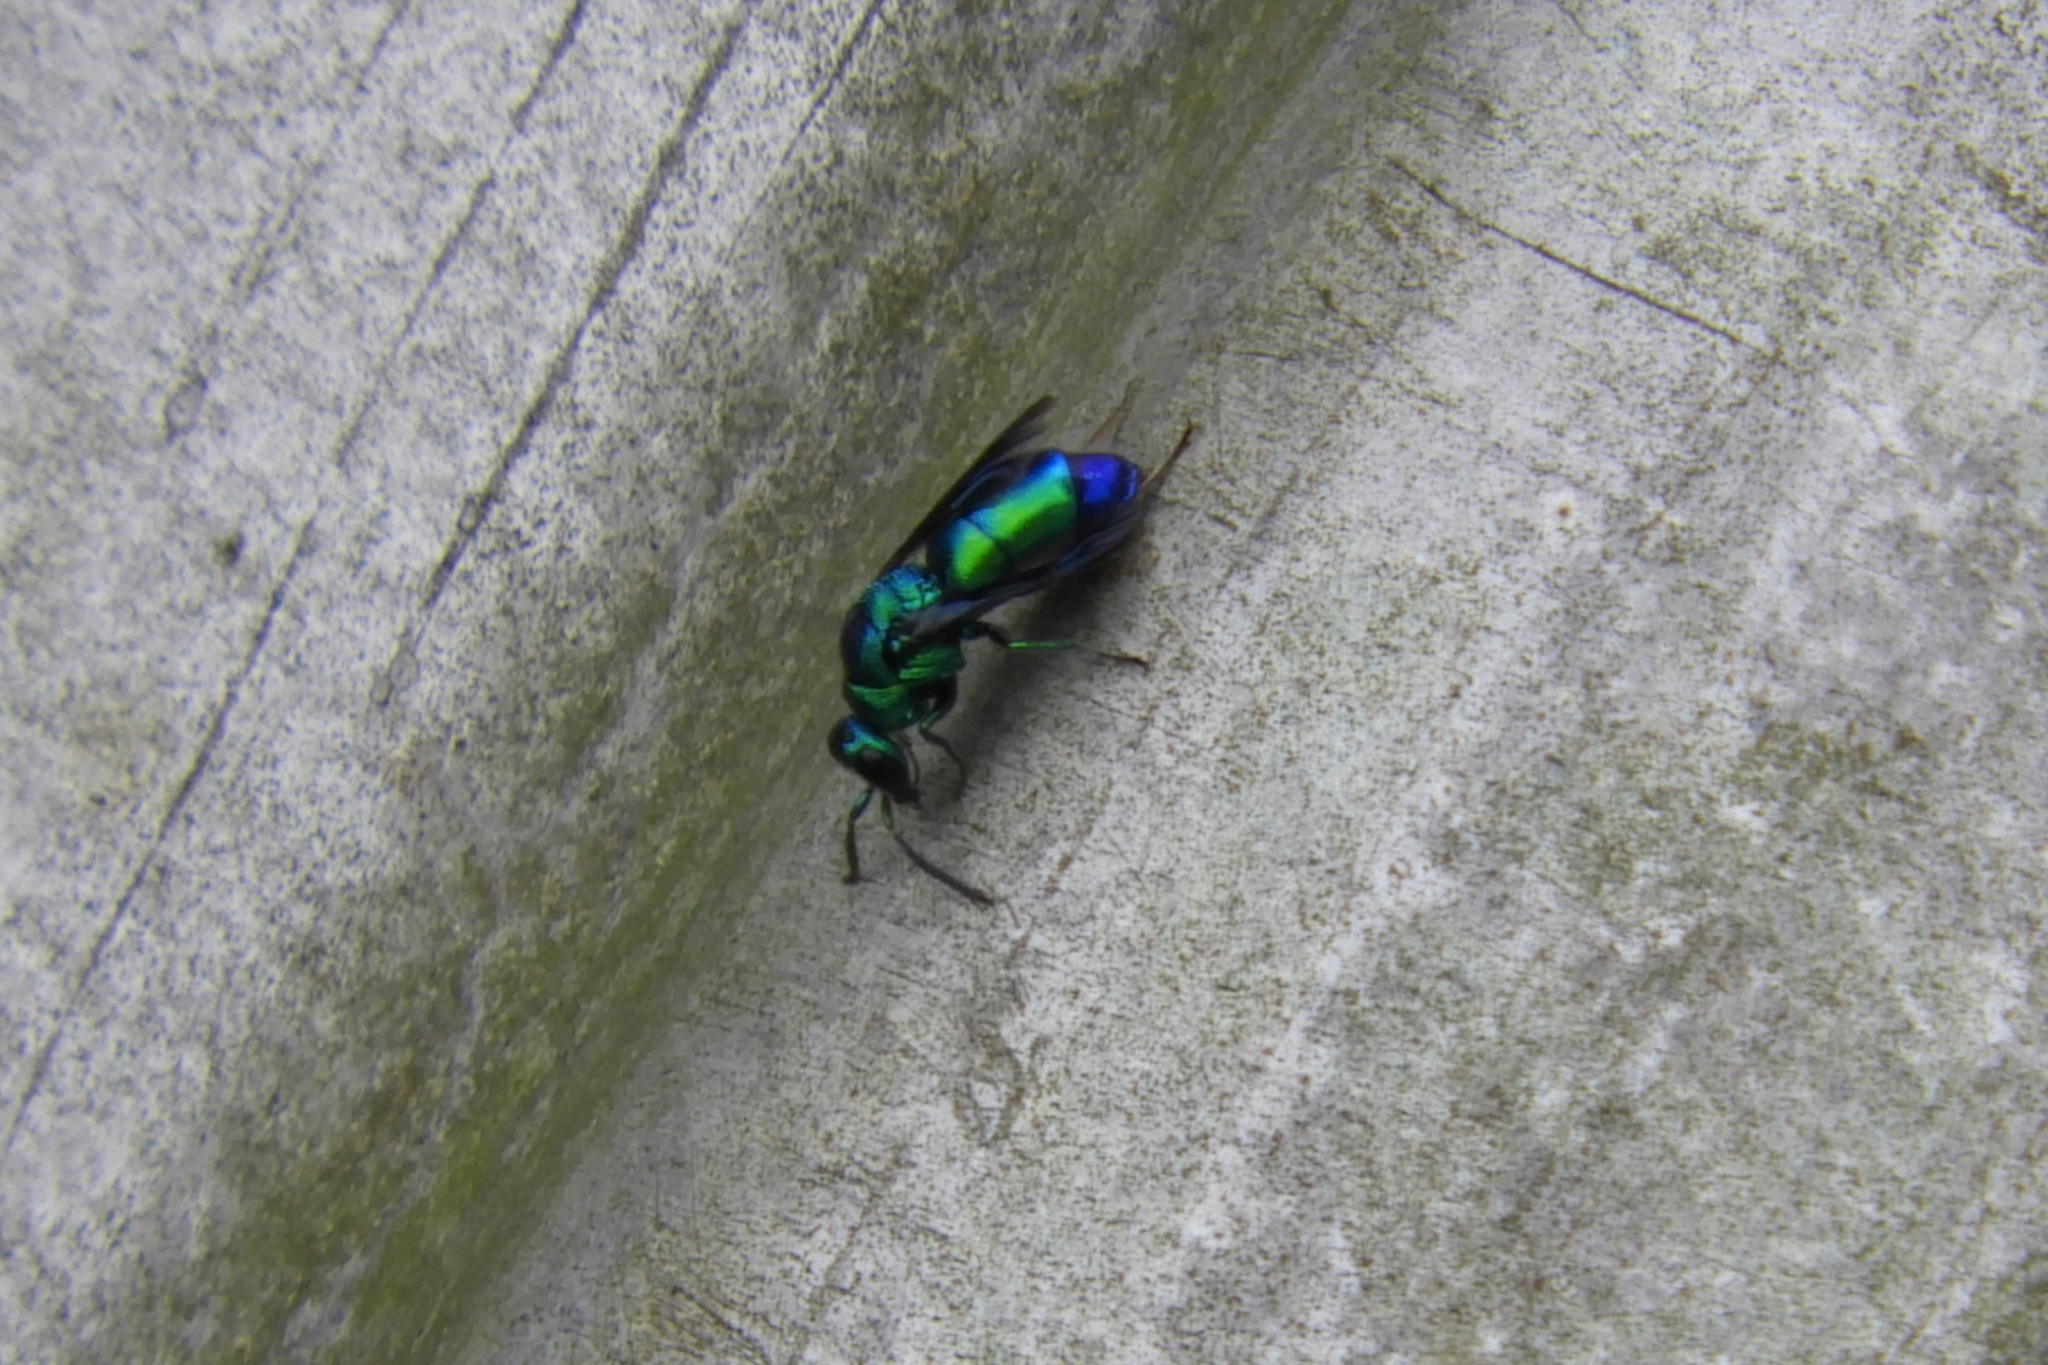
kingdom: Animalia
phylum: Arthropoda
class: Insecta
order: Hymenoptera
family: Chrysididae
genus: Chrysis
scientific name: Chrysis angolensis
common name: Cuckoo wasp
